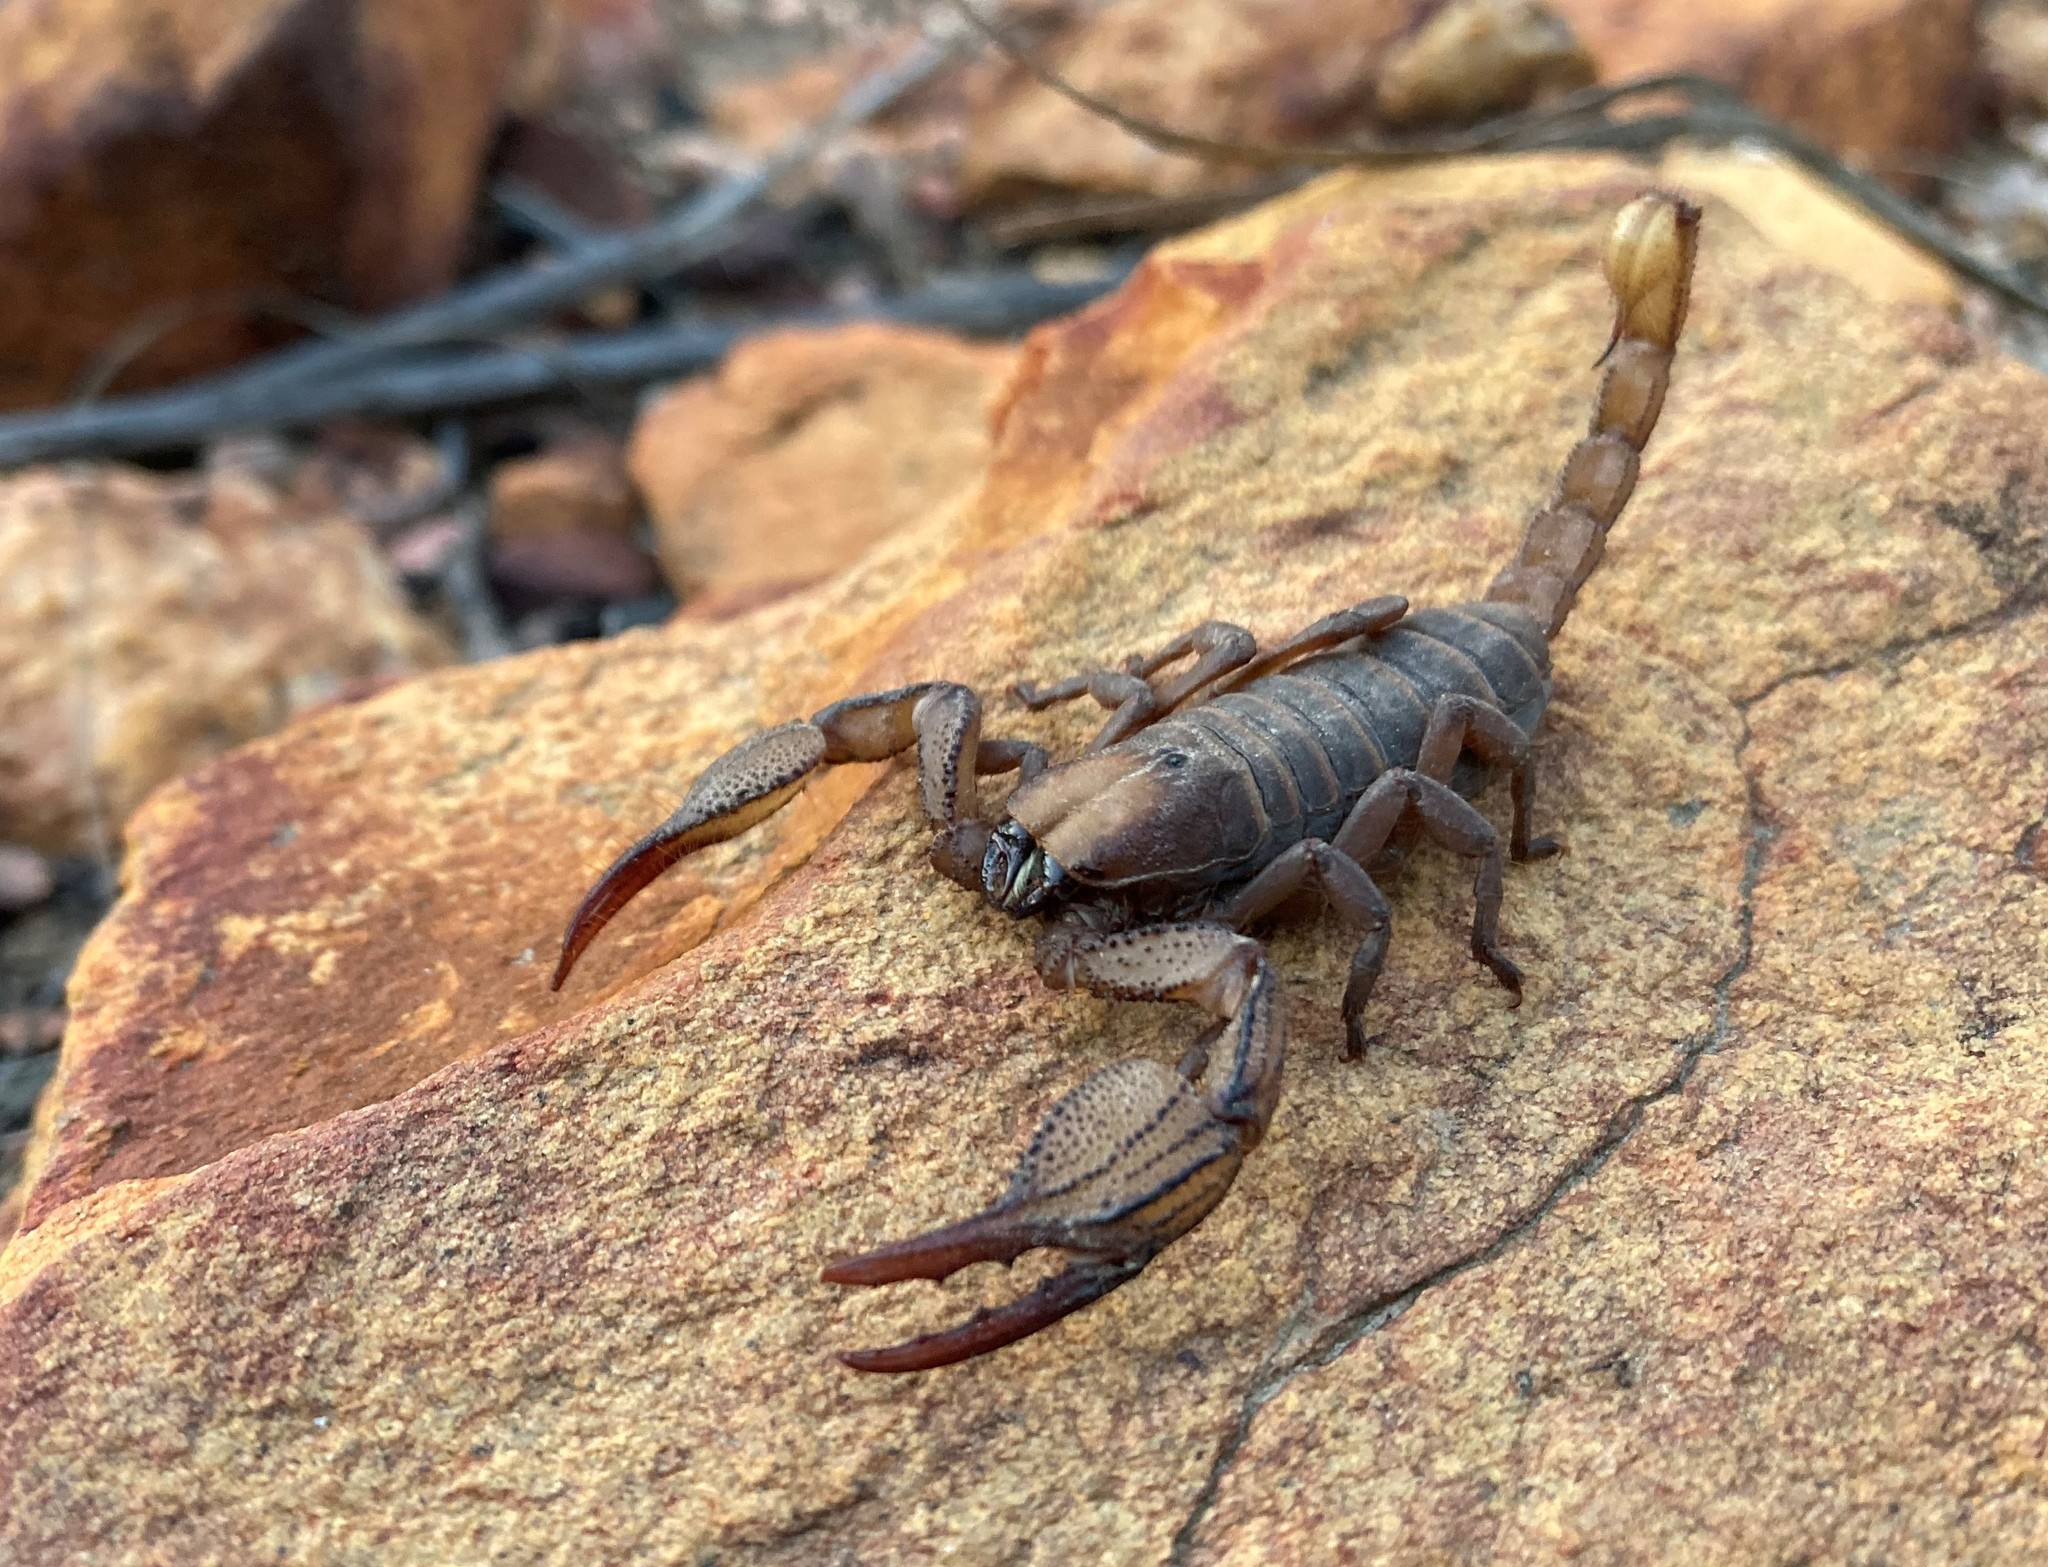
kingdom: Animalia
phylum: Arthropoda
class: Arachnida
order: Scorpiones
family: Scorpionidae
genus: Opistophthalmus
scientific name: Opistophthalmus macer
